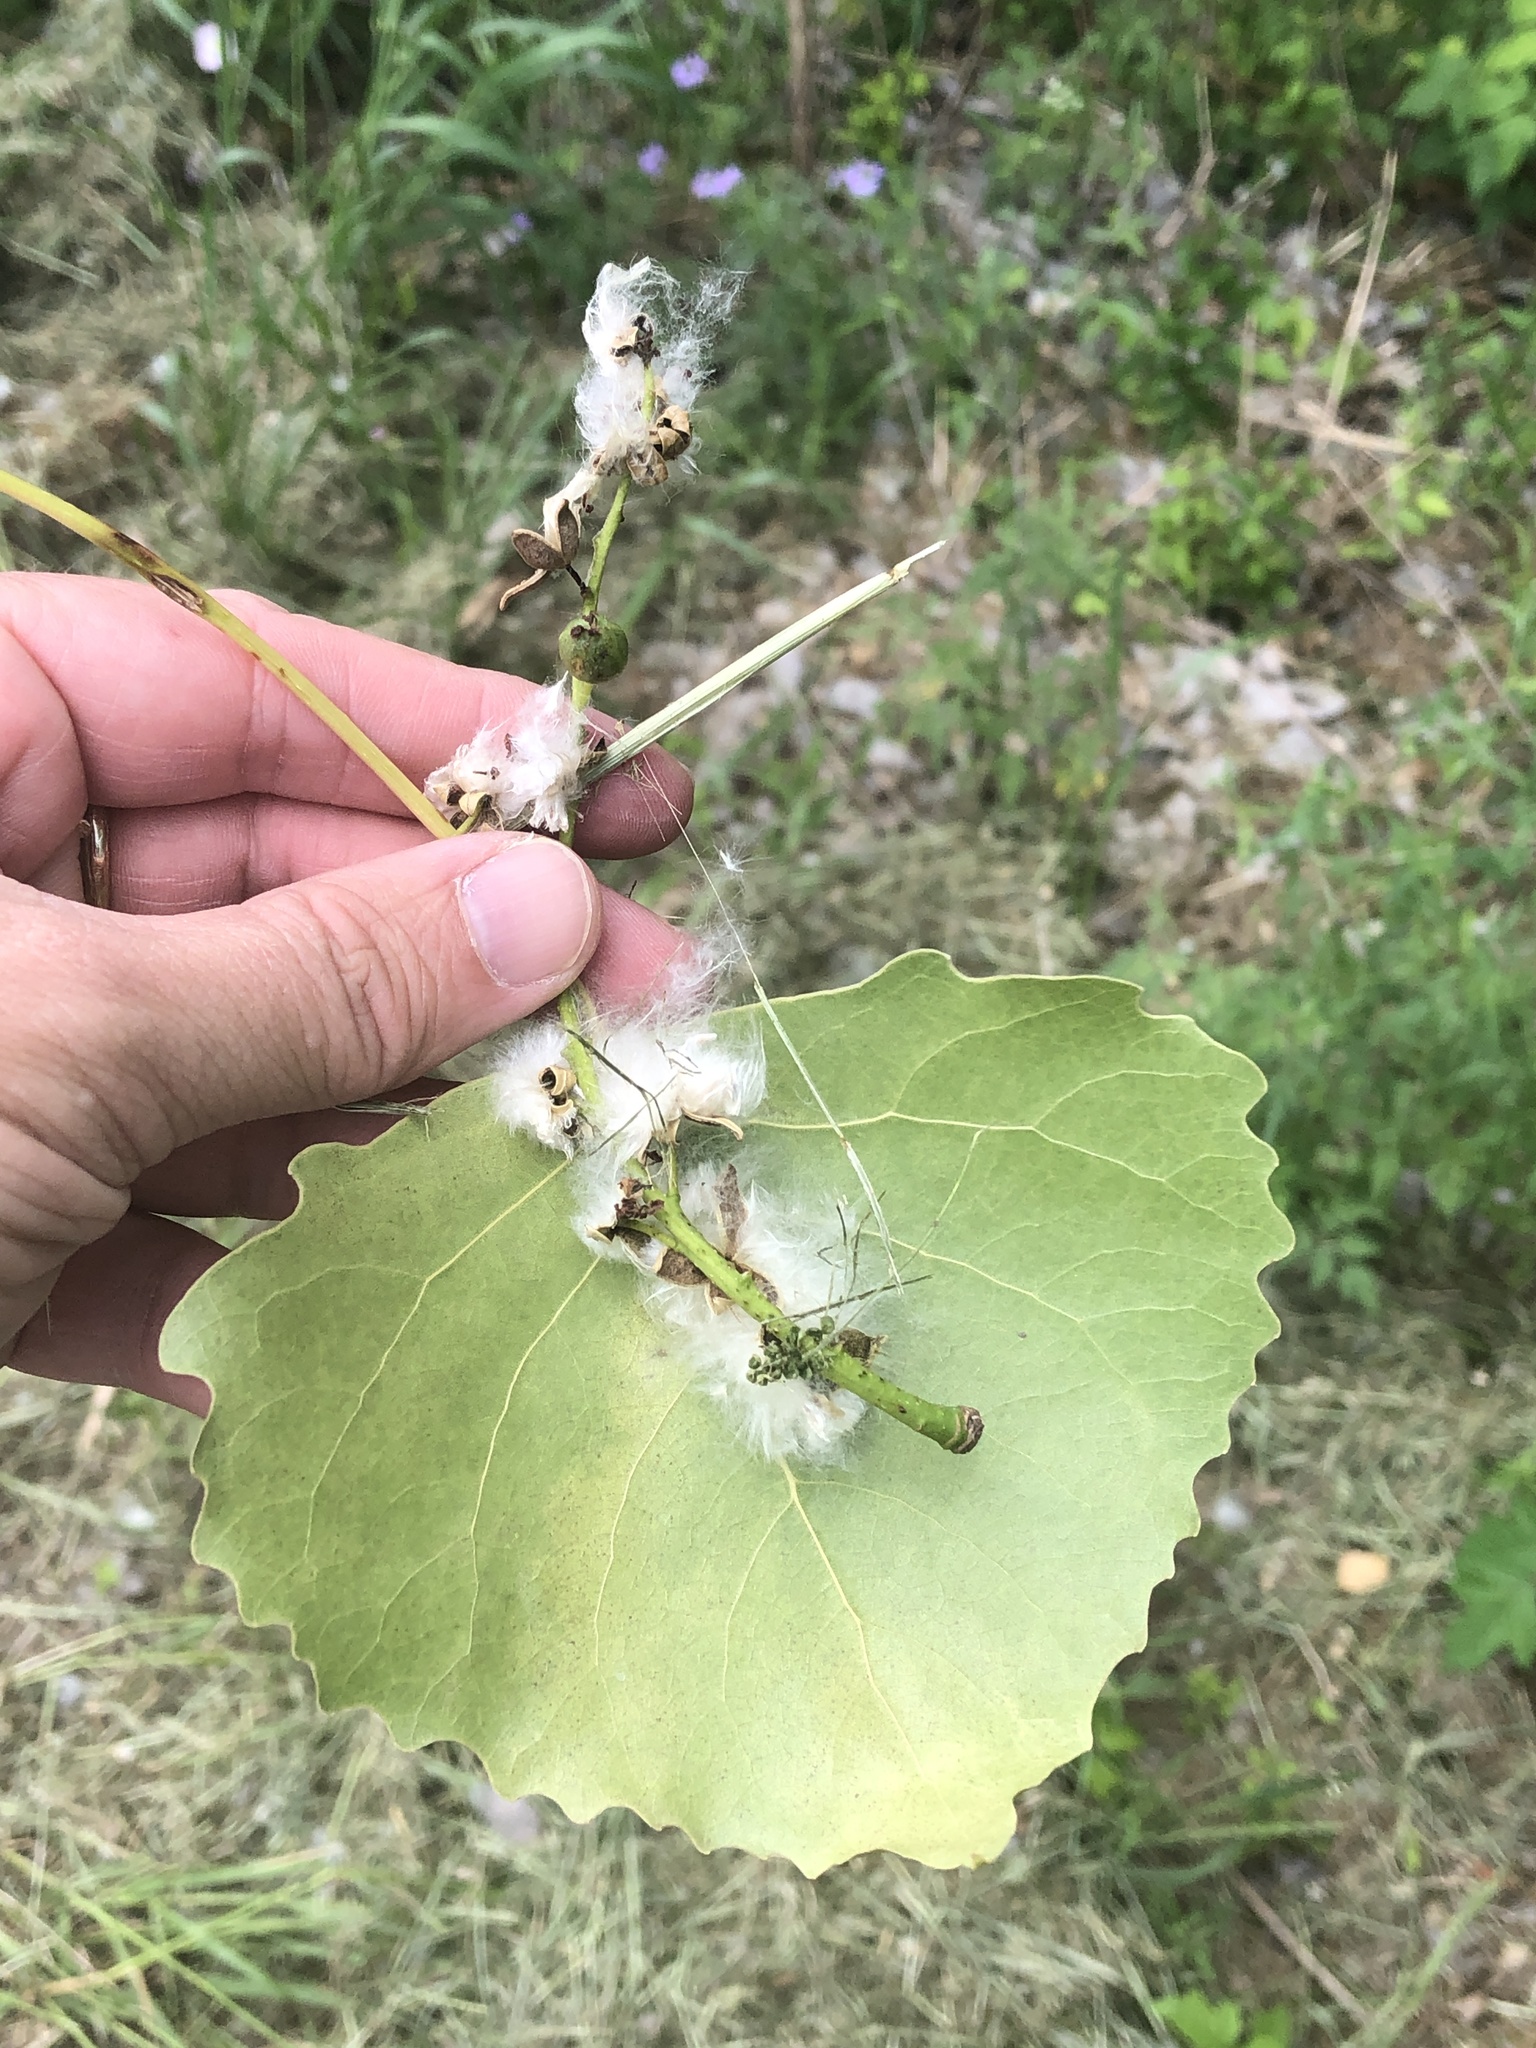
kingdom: Plantae
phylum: Tracheophyta
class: Magnoliopsida
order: Malpighiales
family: Salicaceae
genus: Populus
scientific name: Populus deltoides
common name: Eastern cottonwood
